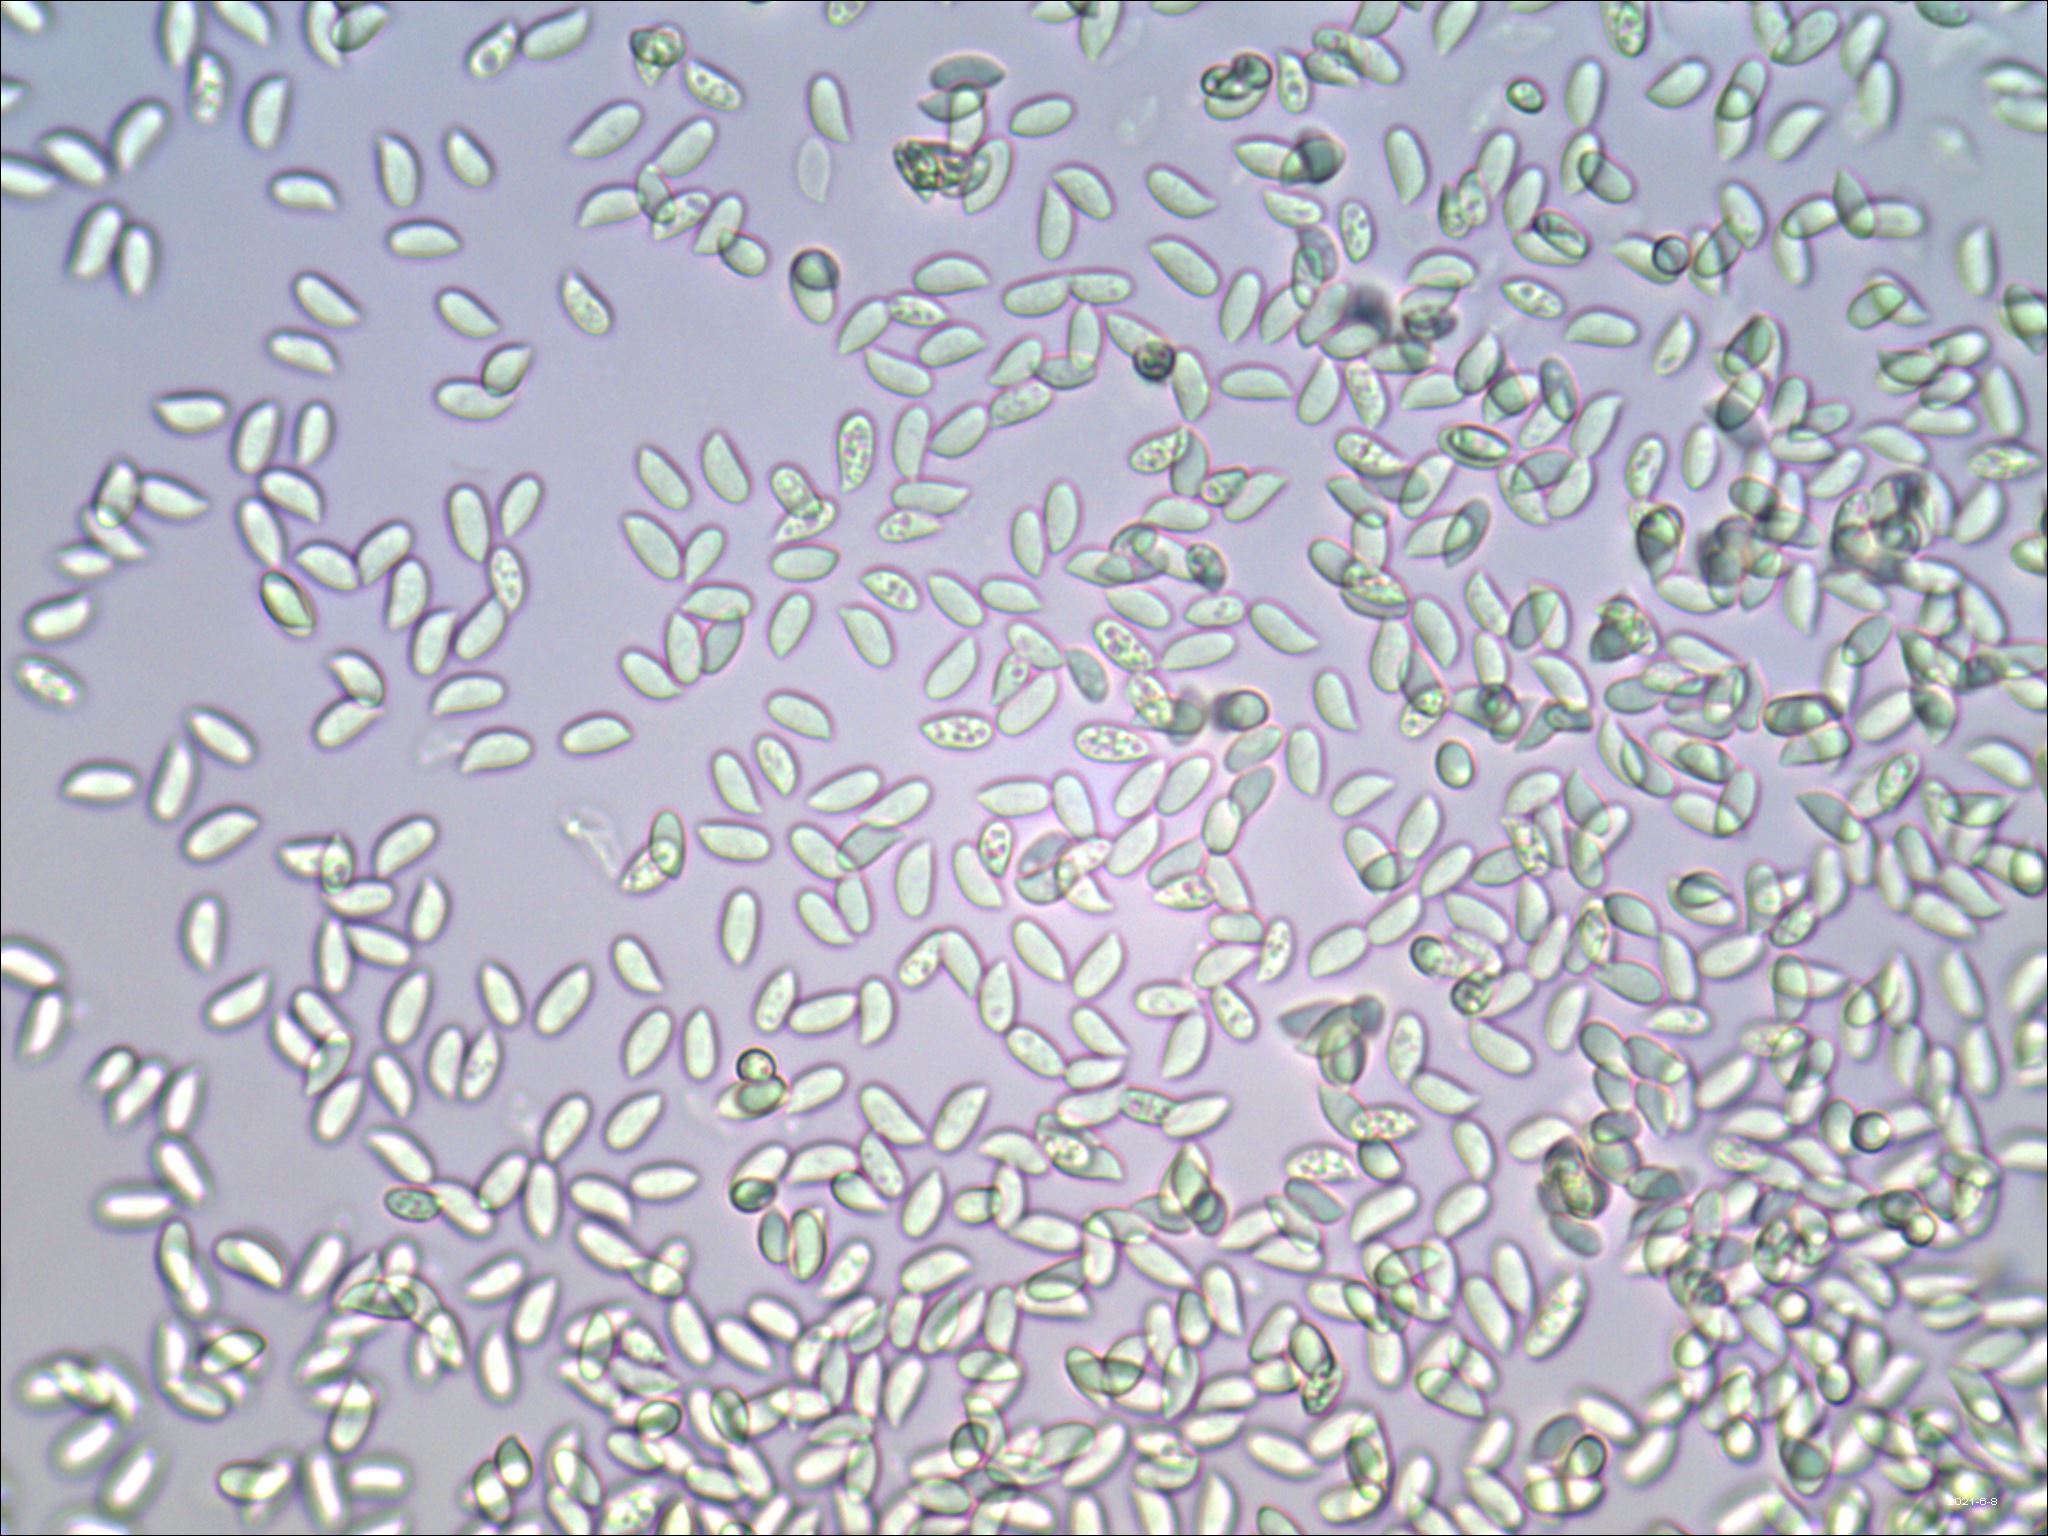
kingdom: Fungi
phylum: Basidiomycota
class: Agaricomycetes
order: Agaricales
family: Omphalotaceae
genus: Gymnopus
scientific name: Gymnopus semihirtipes
